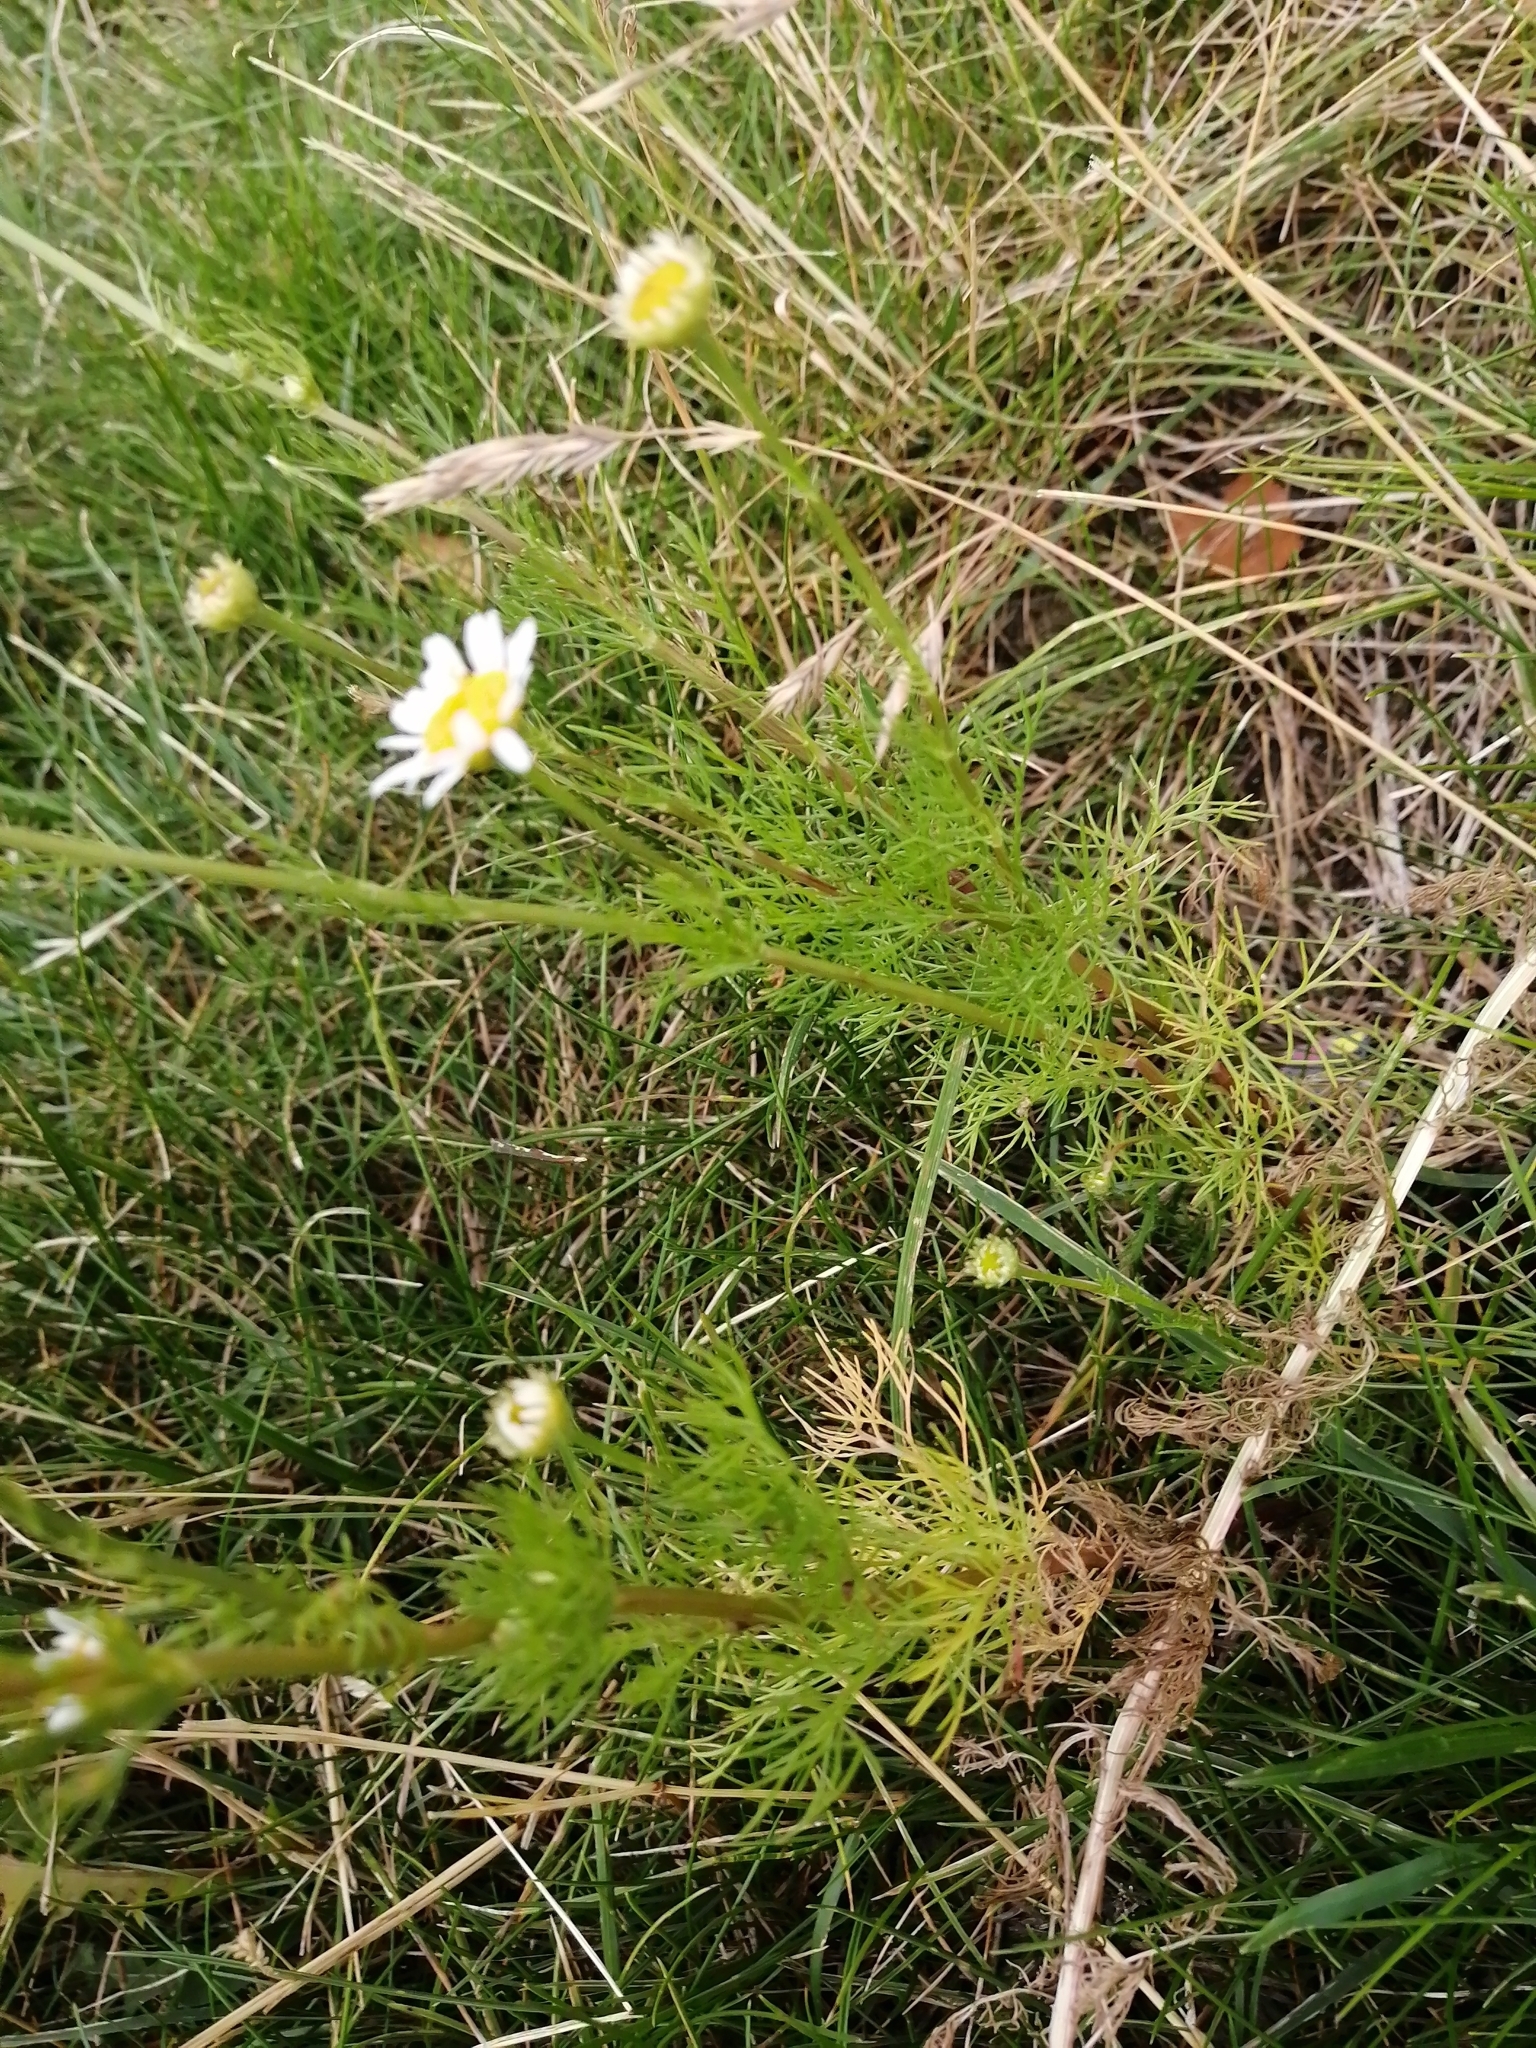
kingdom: Plantae
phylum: Tracheophyta
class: Magnoliopsida
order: Asterales
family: Asteraceae
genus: Tripleurospermum
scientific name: Tripleurospermum inodorum
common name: Scentless mayweed
